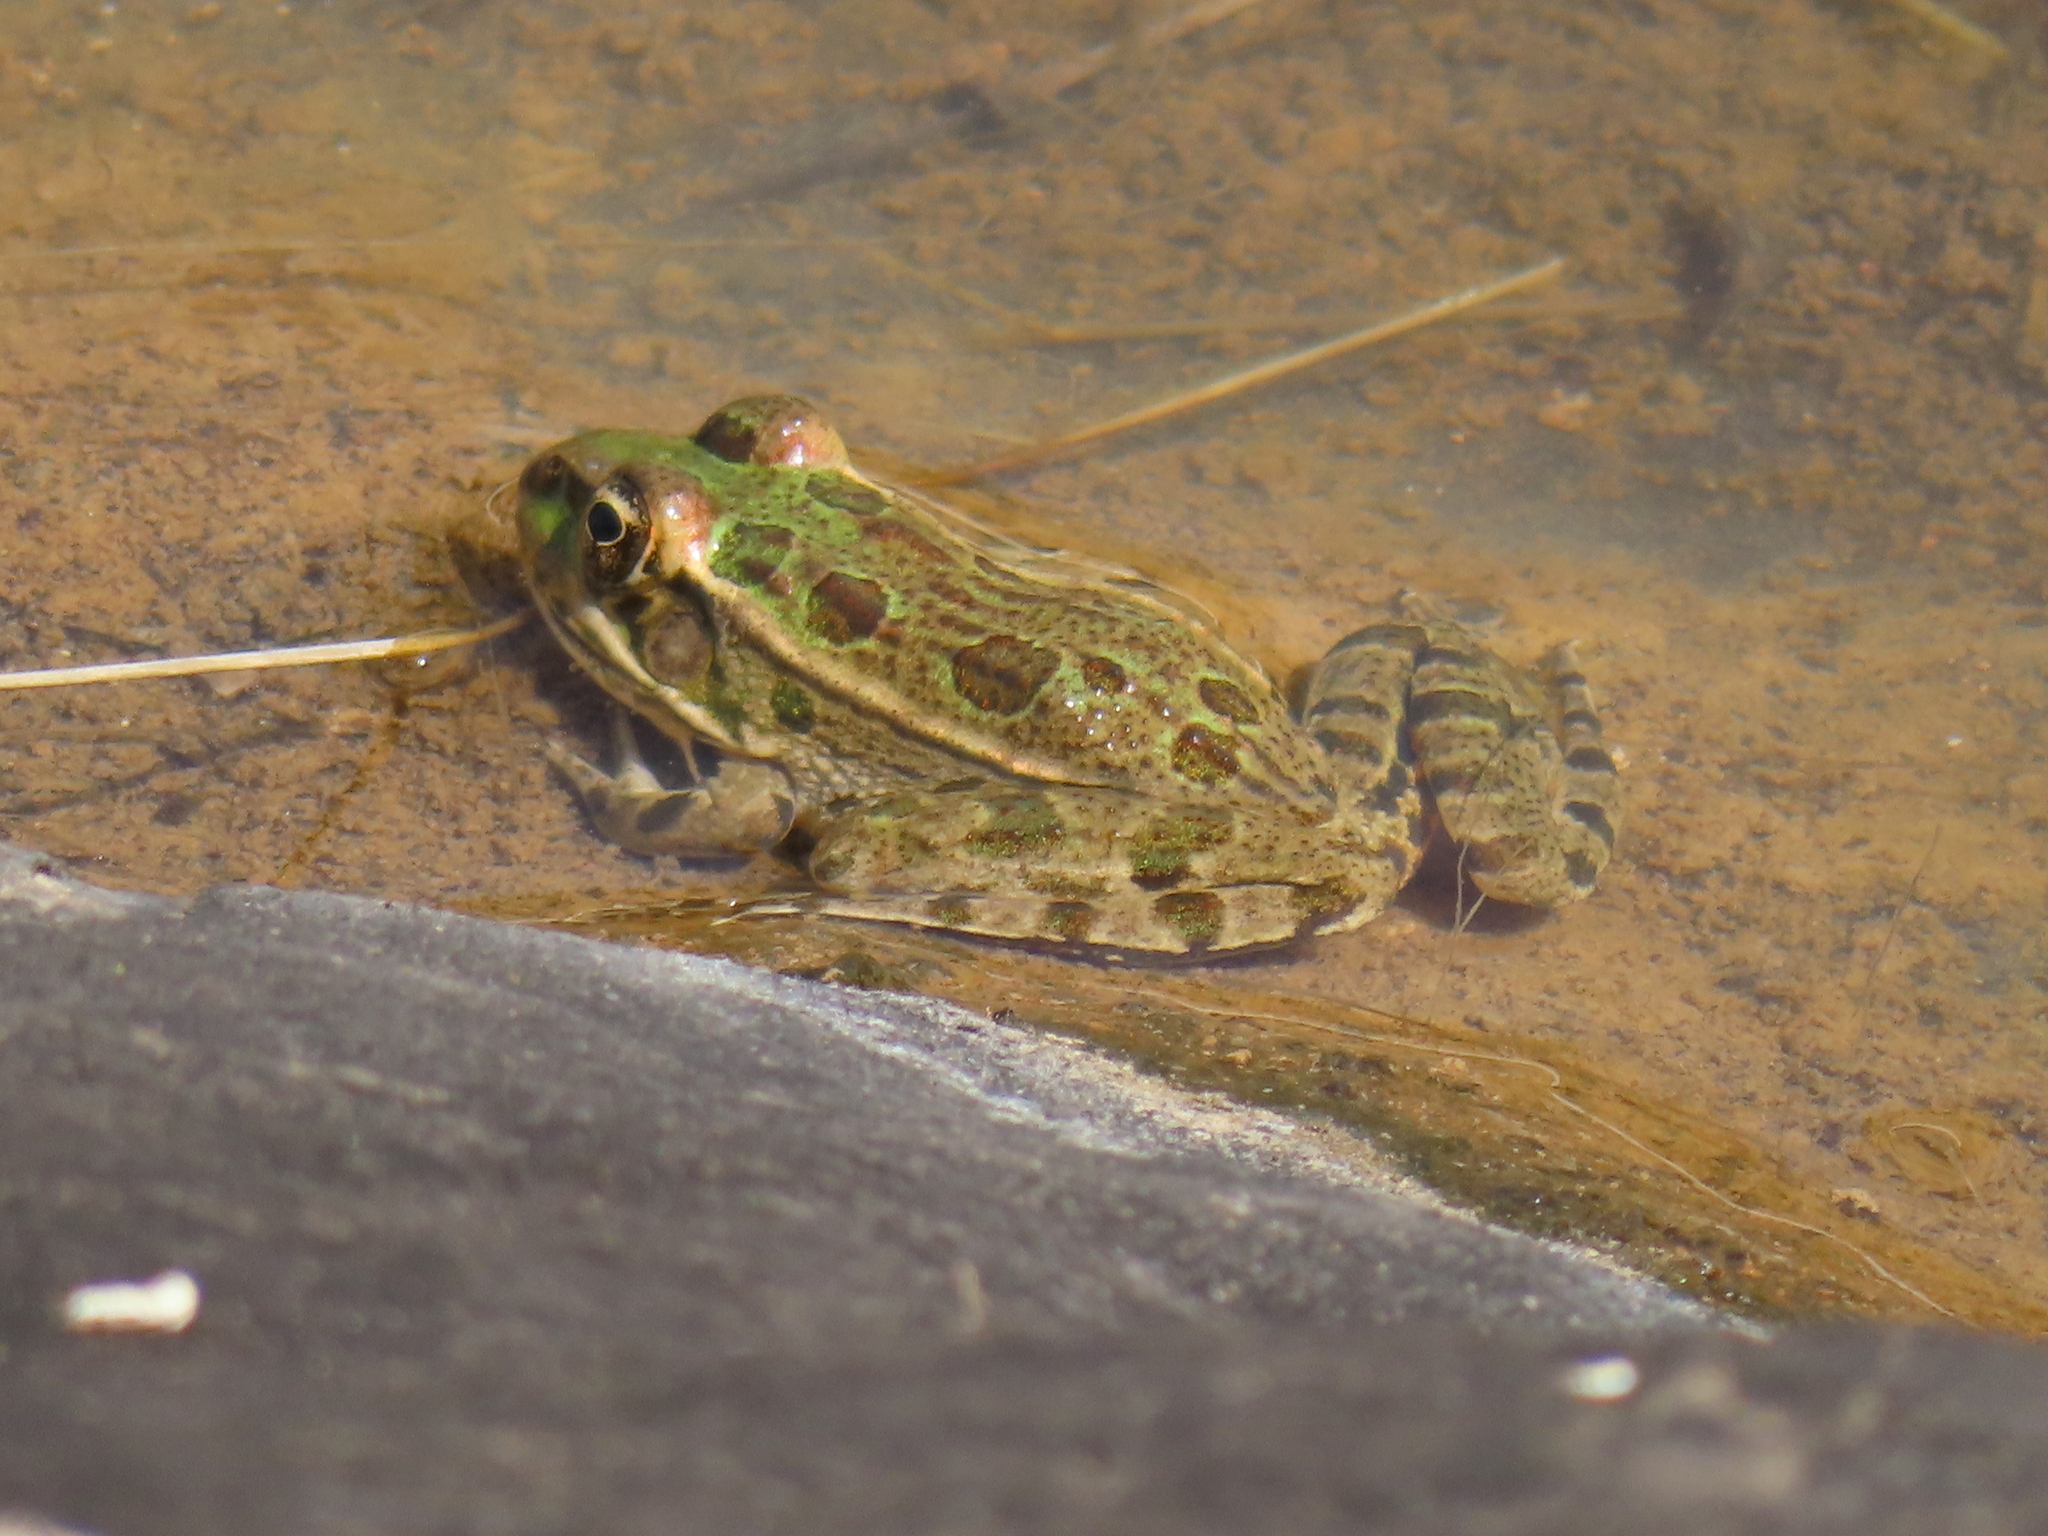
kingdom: Animalia
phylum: Chordata
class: Amphibia
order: Anura
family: Ranidae
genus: Lithobates
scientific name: Lithobates berlandieri
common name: Rio grande leopard frog
